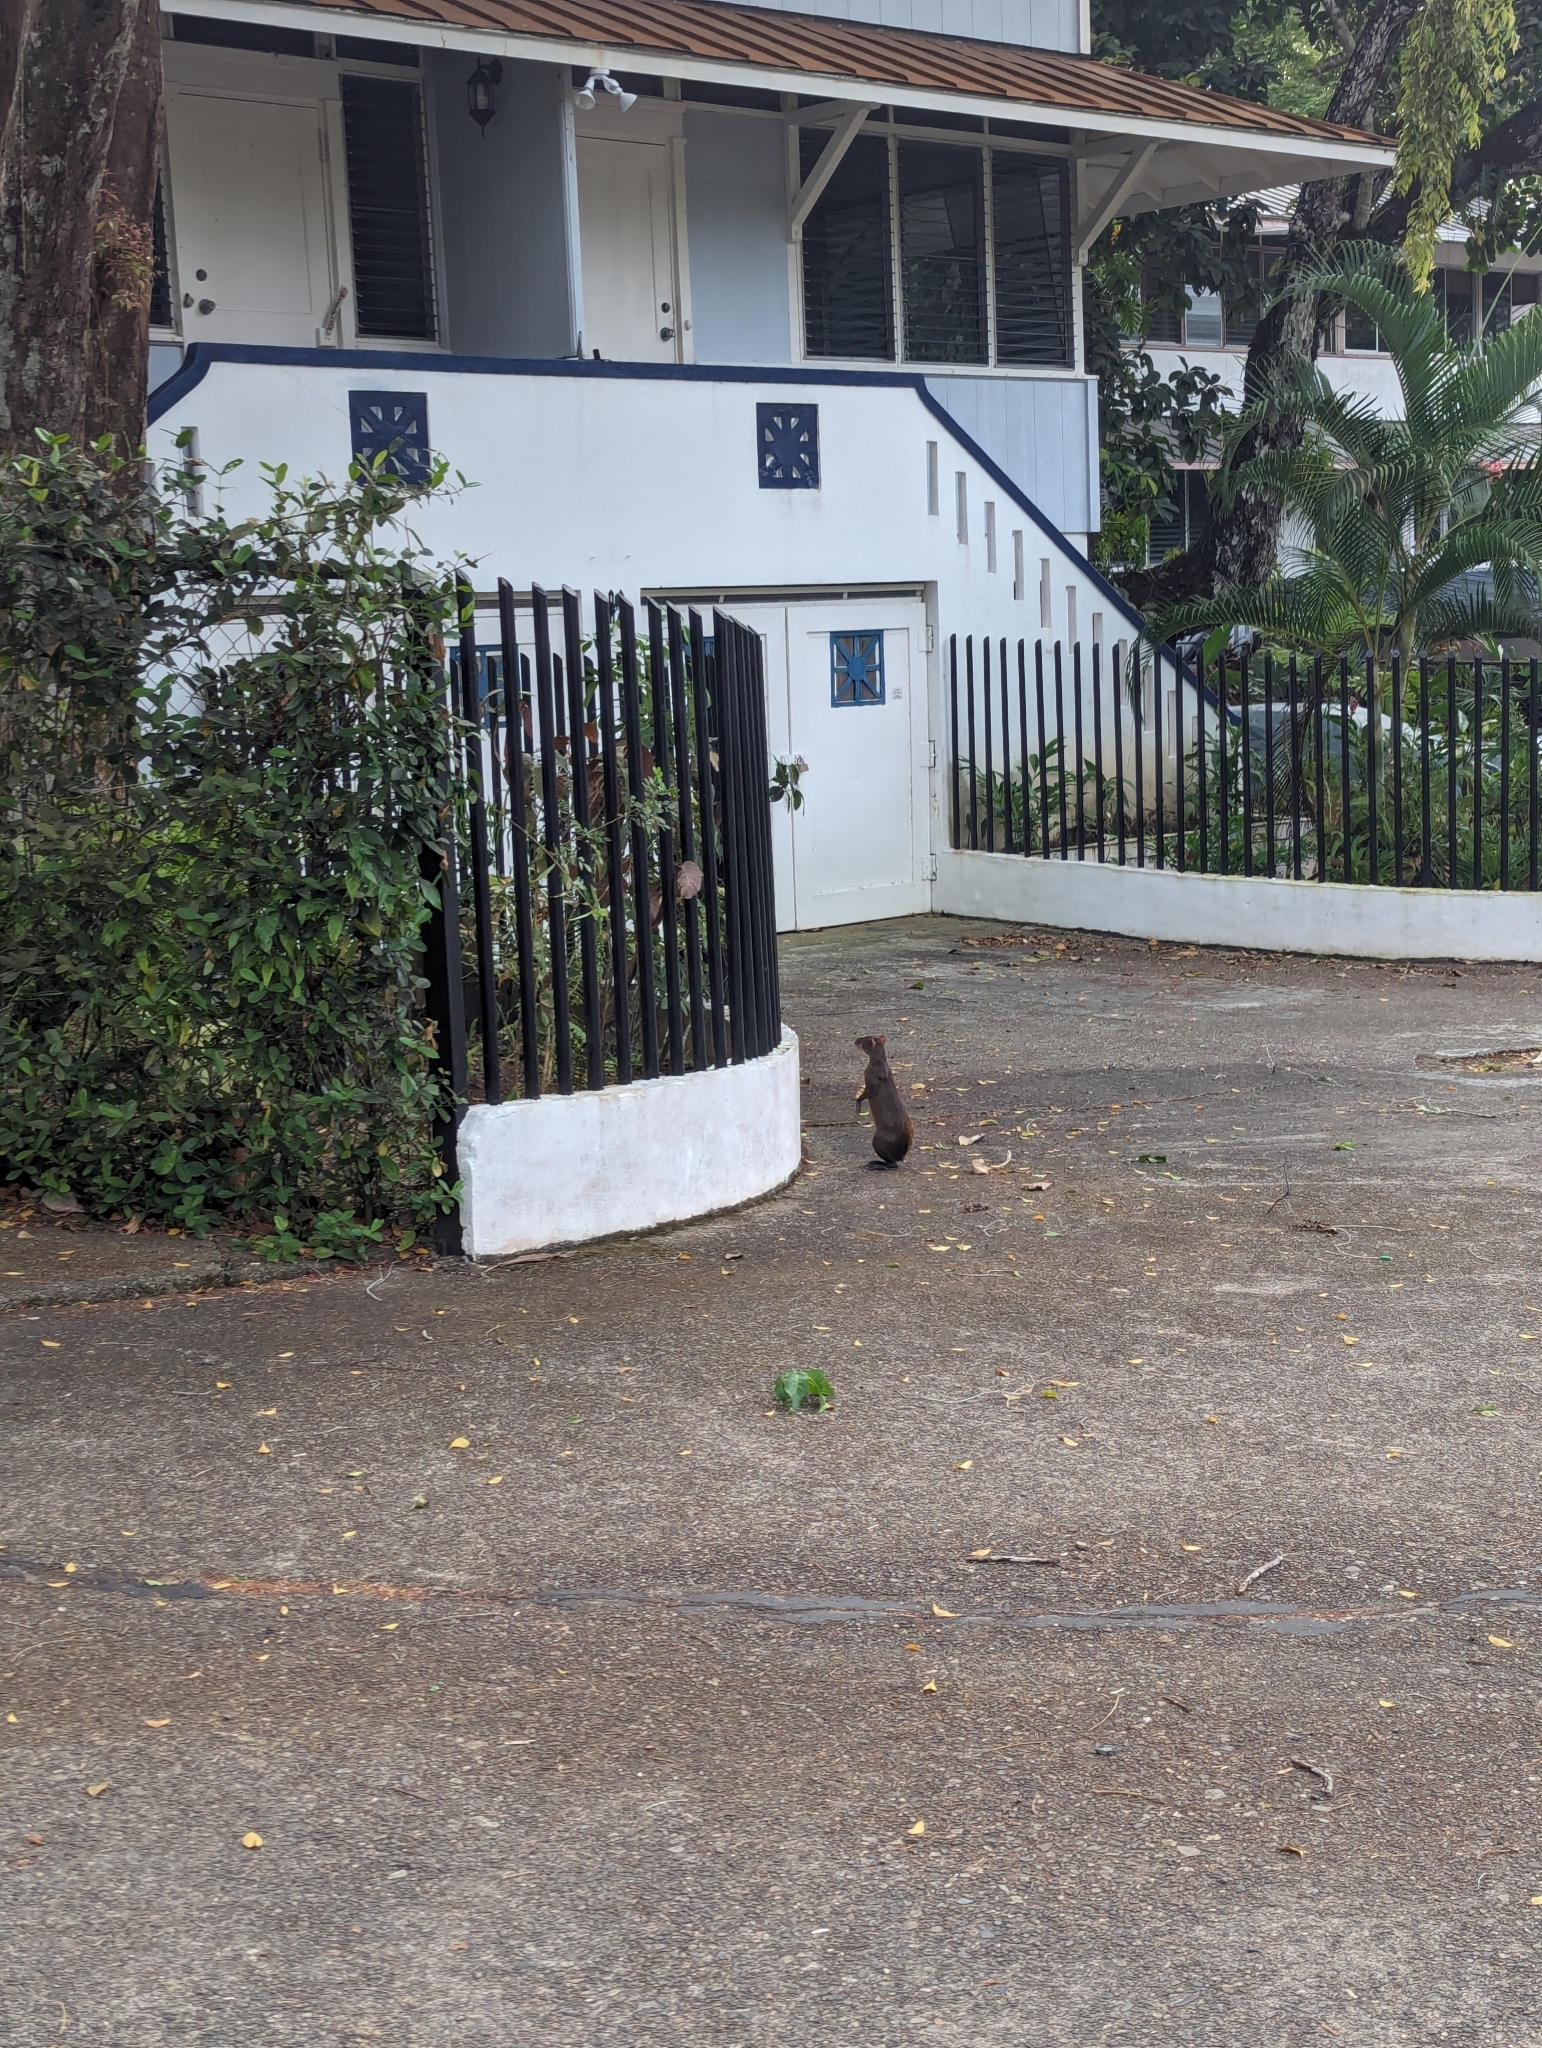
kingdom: Animalia
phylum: Chordata
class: Mammalia
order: Rodentia
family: Dasyproctidae
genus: Dasyprocta
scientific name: Dasyprocta punctata
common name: Central american agouti
